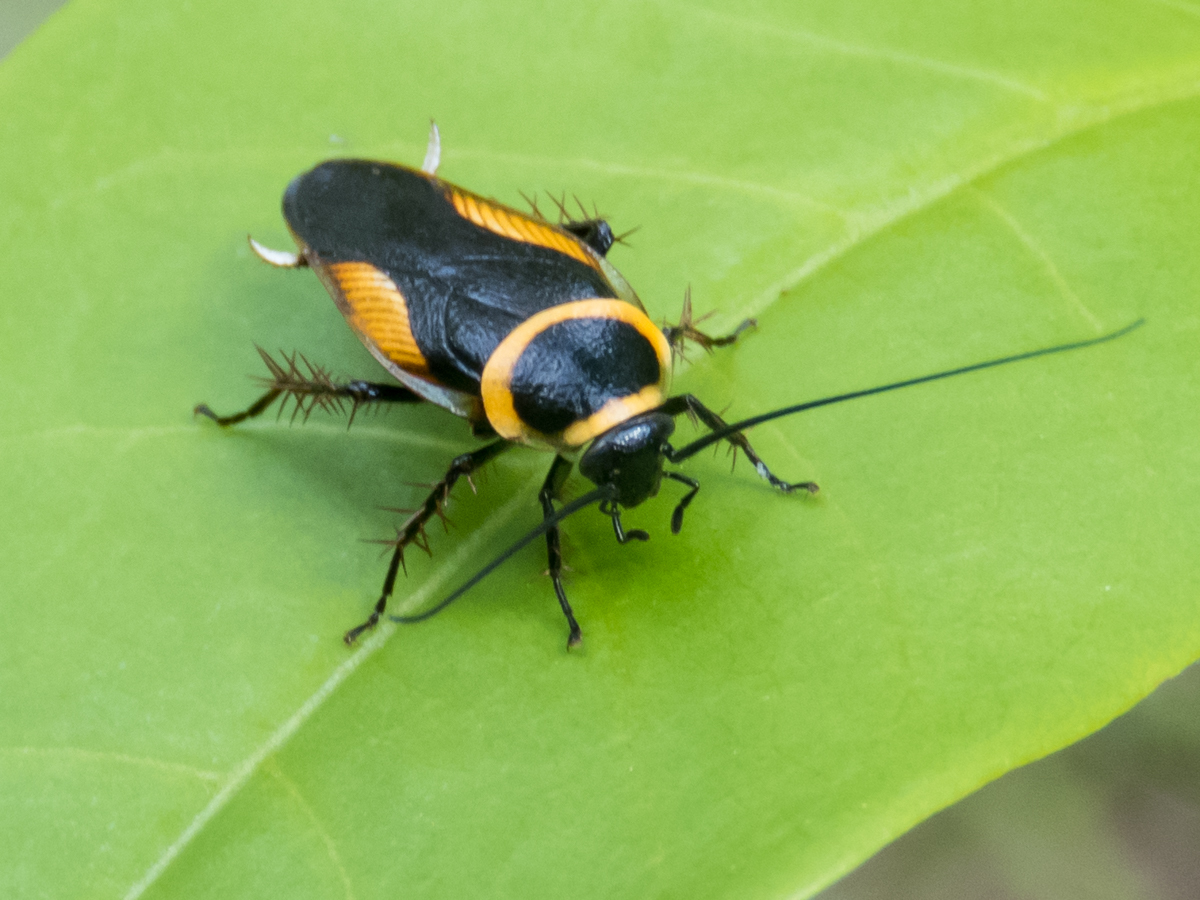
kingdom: Animalia
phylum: Arthropoda
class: Insecta
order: Blattodea
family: Ectobiidae
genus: Hemithyrsocera
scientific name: Hemithyrsocera vittata
